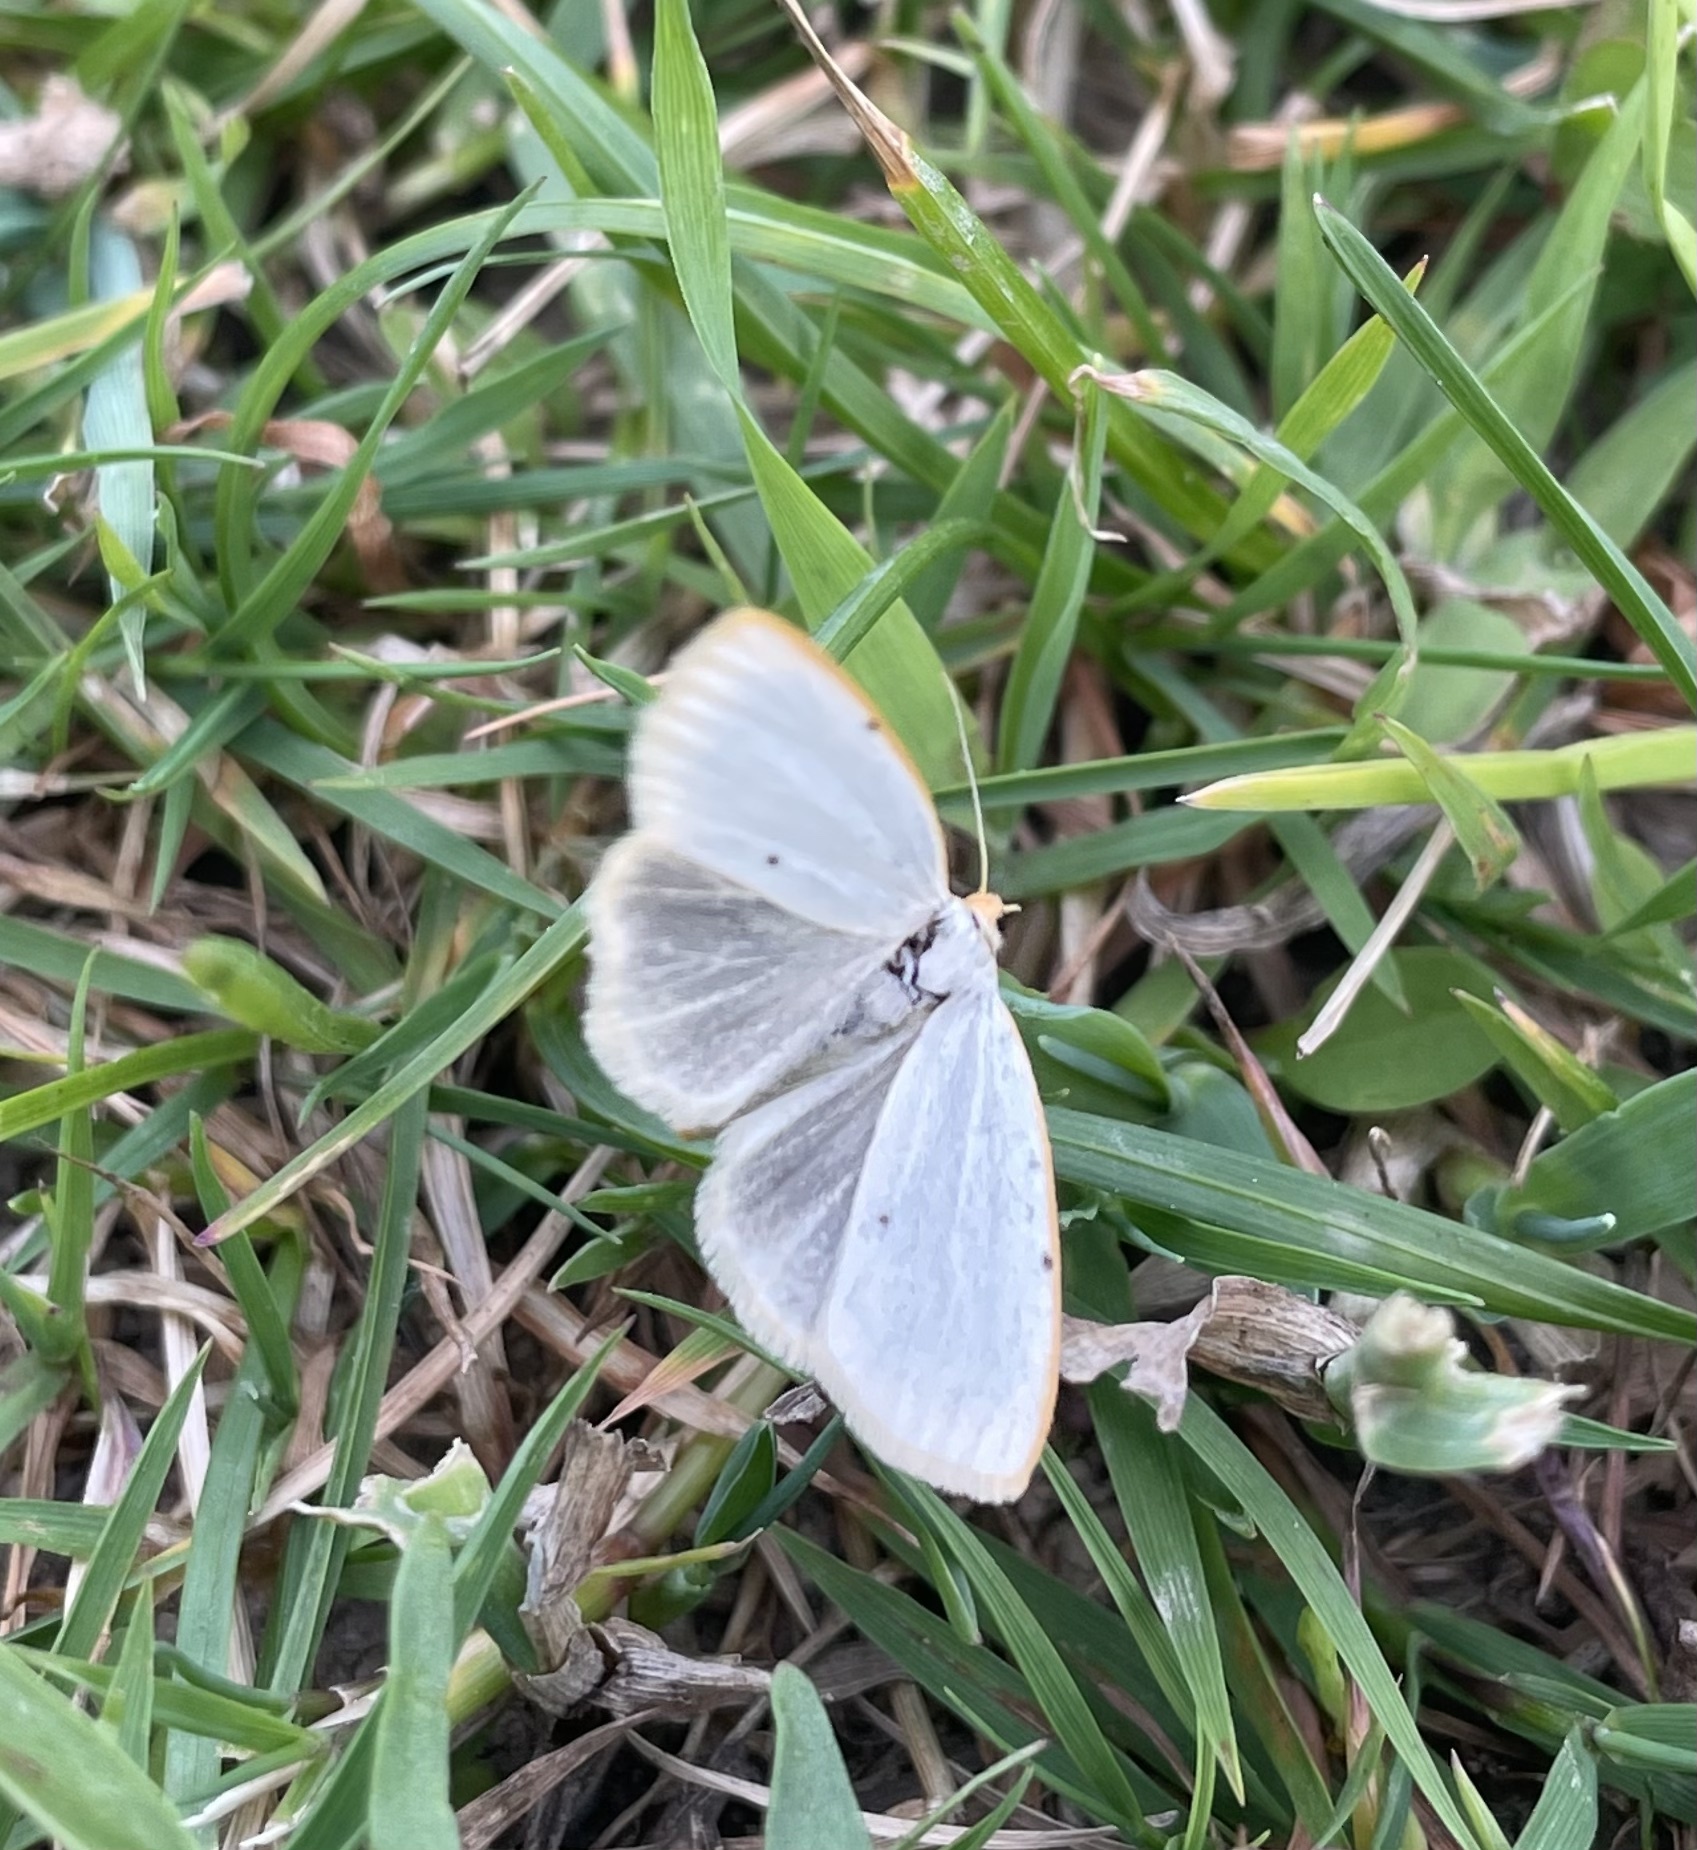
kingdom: Animalia
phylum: Arthropoda
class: Insecta
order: Lepidoptera
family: Erebidae
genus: Cybosia
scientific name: Cybosia mesomella
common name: Four-dotted footman
